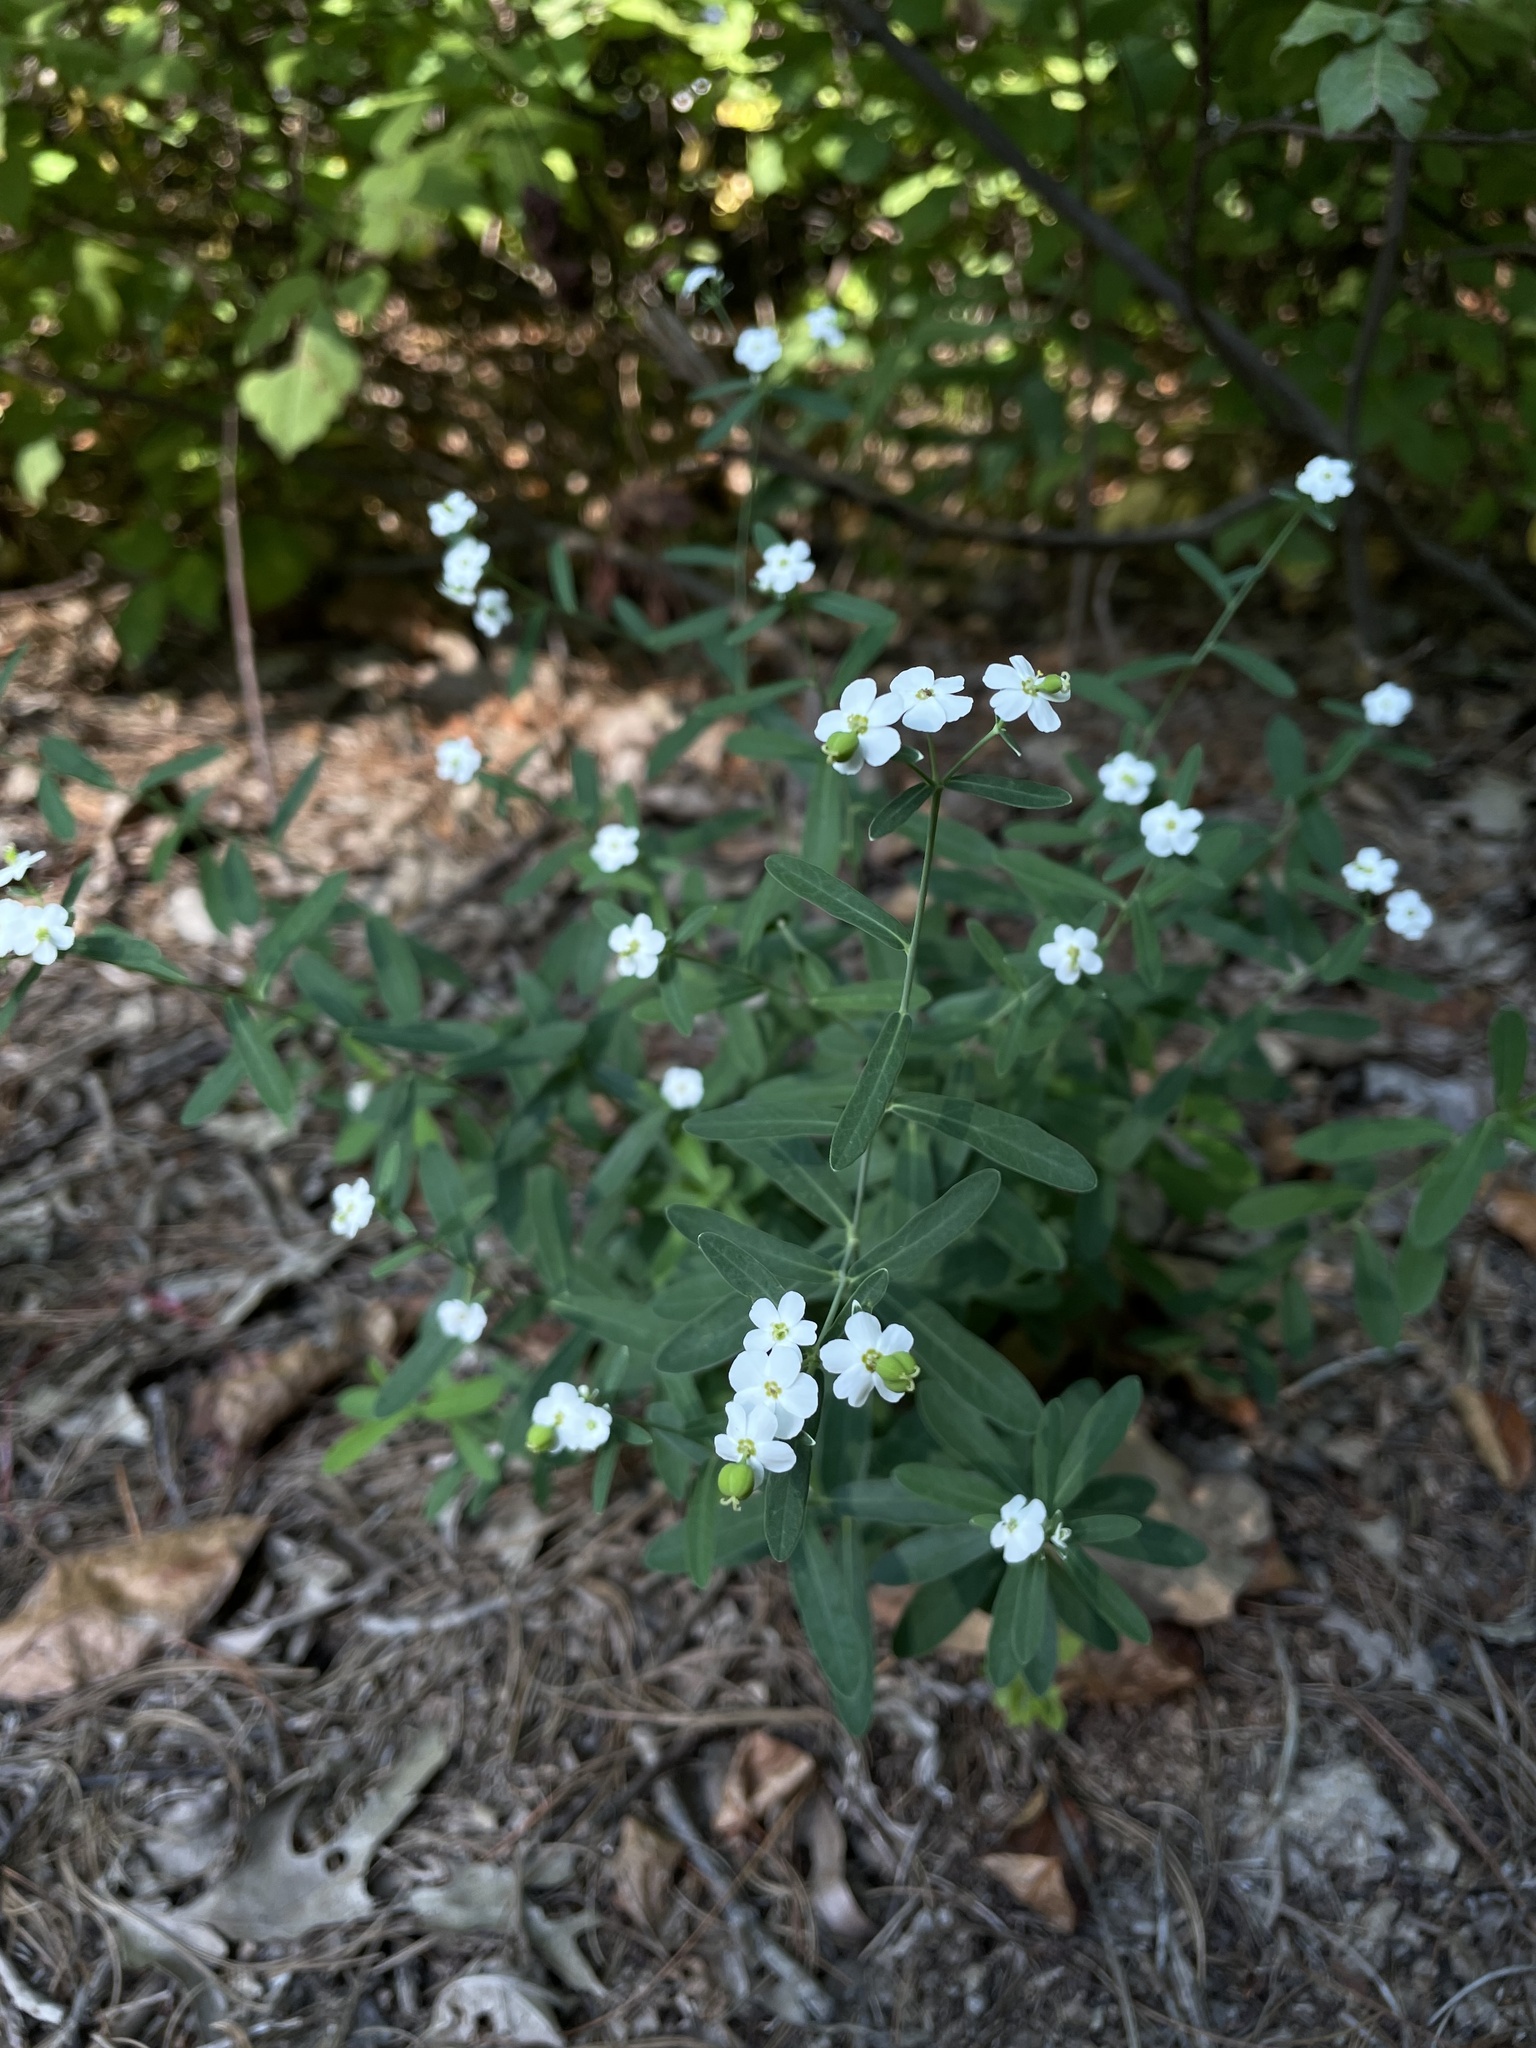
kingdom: Plantae
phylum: Tracheophyta
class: Magnoliopsida
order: Malpighiales
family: Euphorbiaceae
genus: Euphorbia
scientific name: Euphorbia corollata
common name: Flowering spurge
